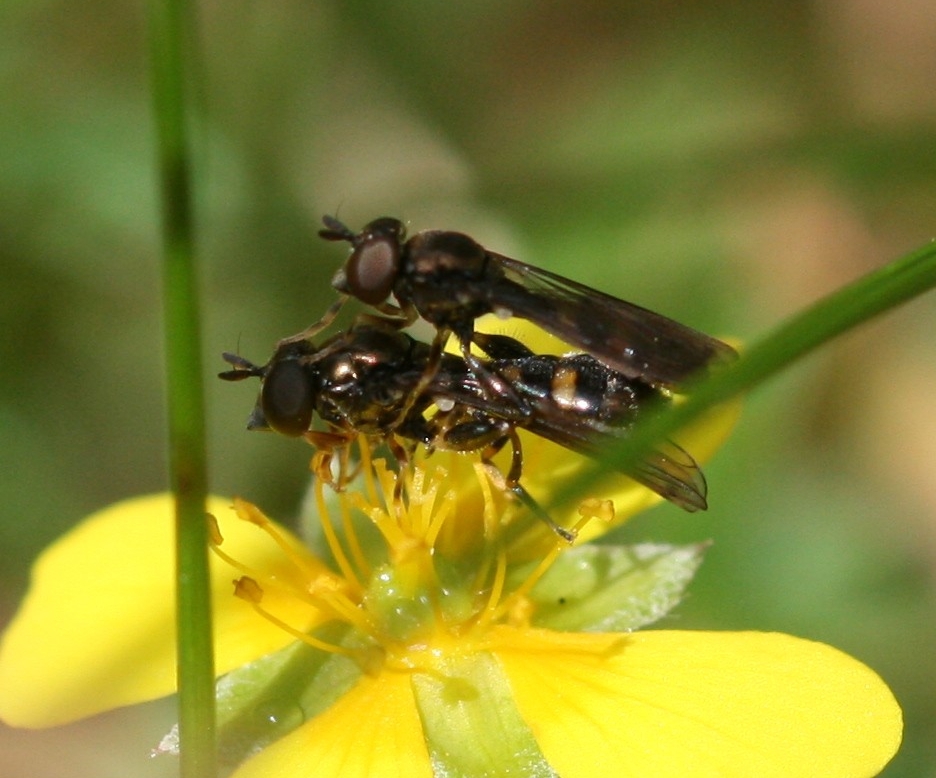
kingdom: Animalia
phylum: Arthropoda
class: Insecta
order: Diptera
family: Syrphidae
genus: Neoascia
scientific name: Neoascia
